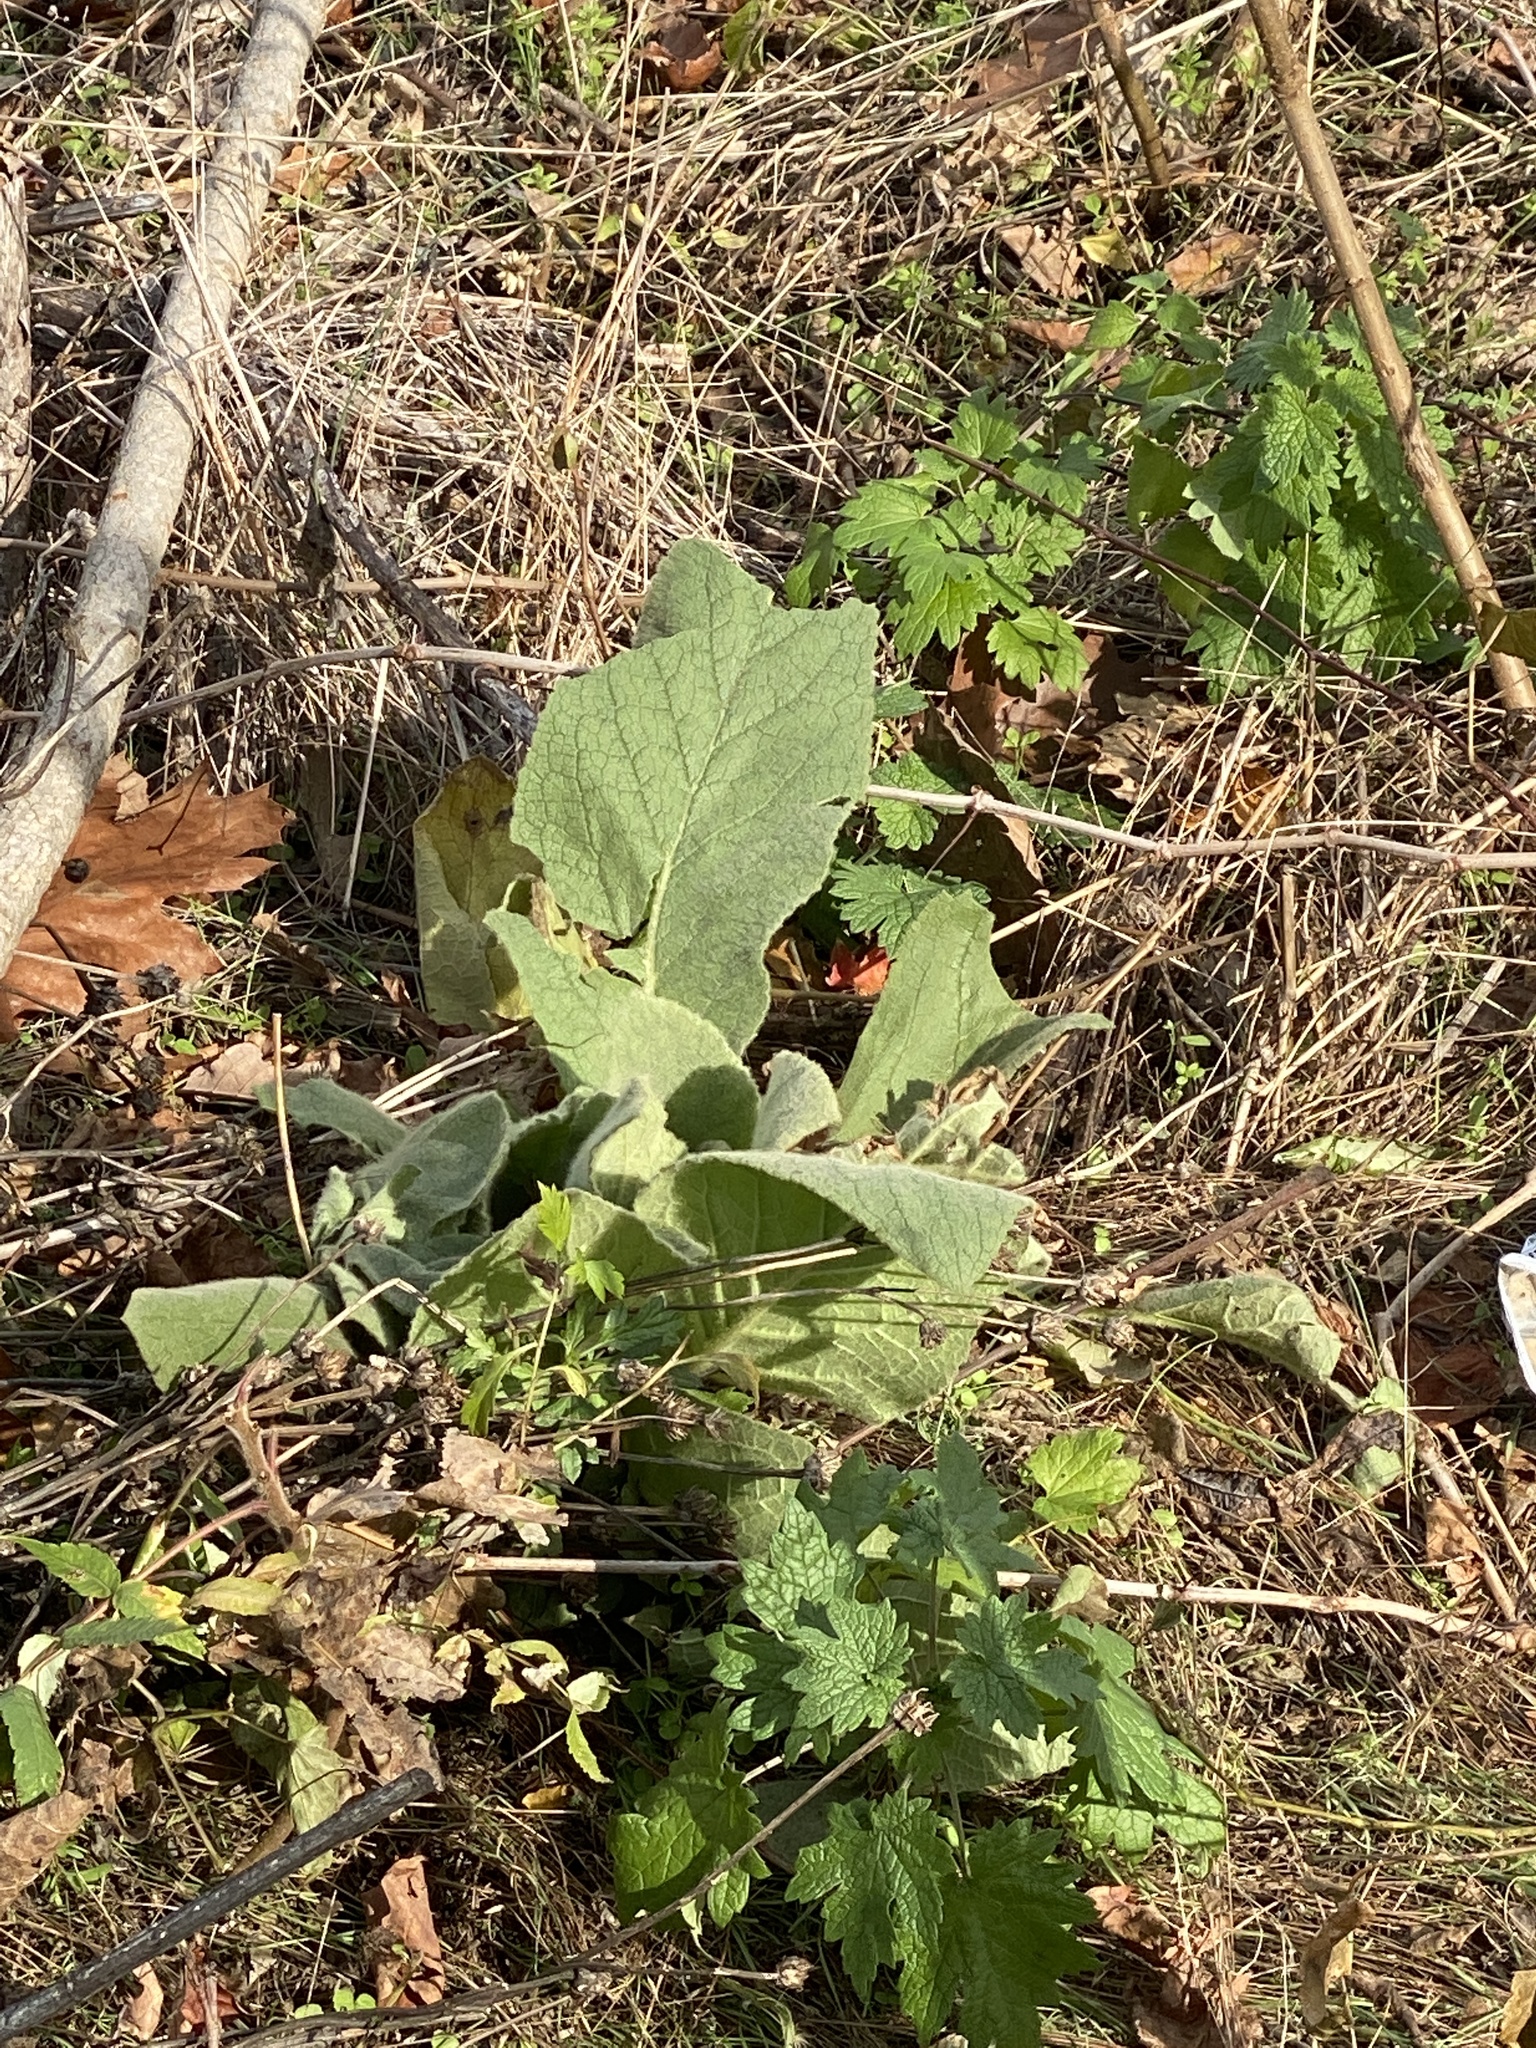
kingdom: Plantae
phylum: Tracheophyta
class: Magnoliopsida
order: Lamiales
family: Scrophulariaceae
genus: Verbascum
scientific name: Verbascum thapsus
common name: Common mullein
